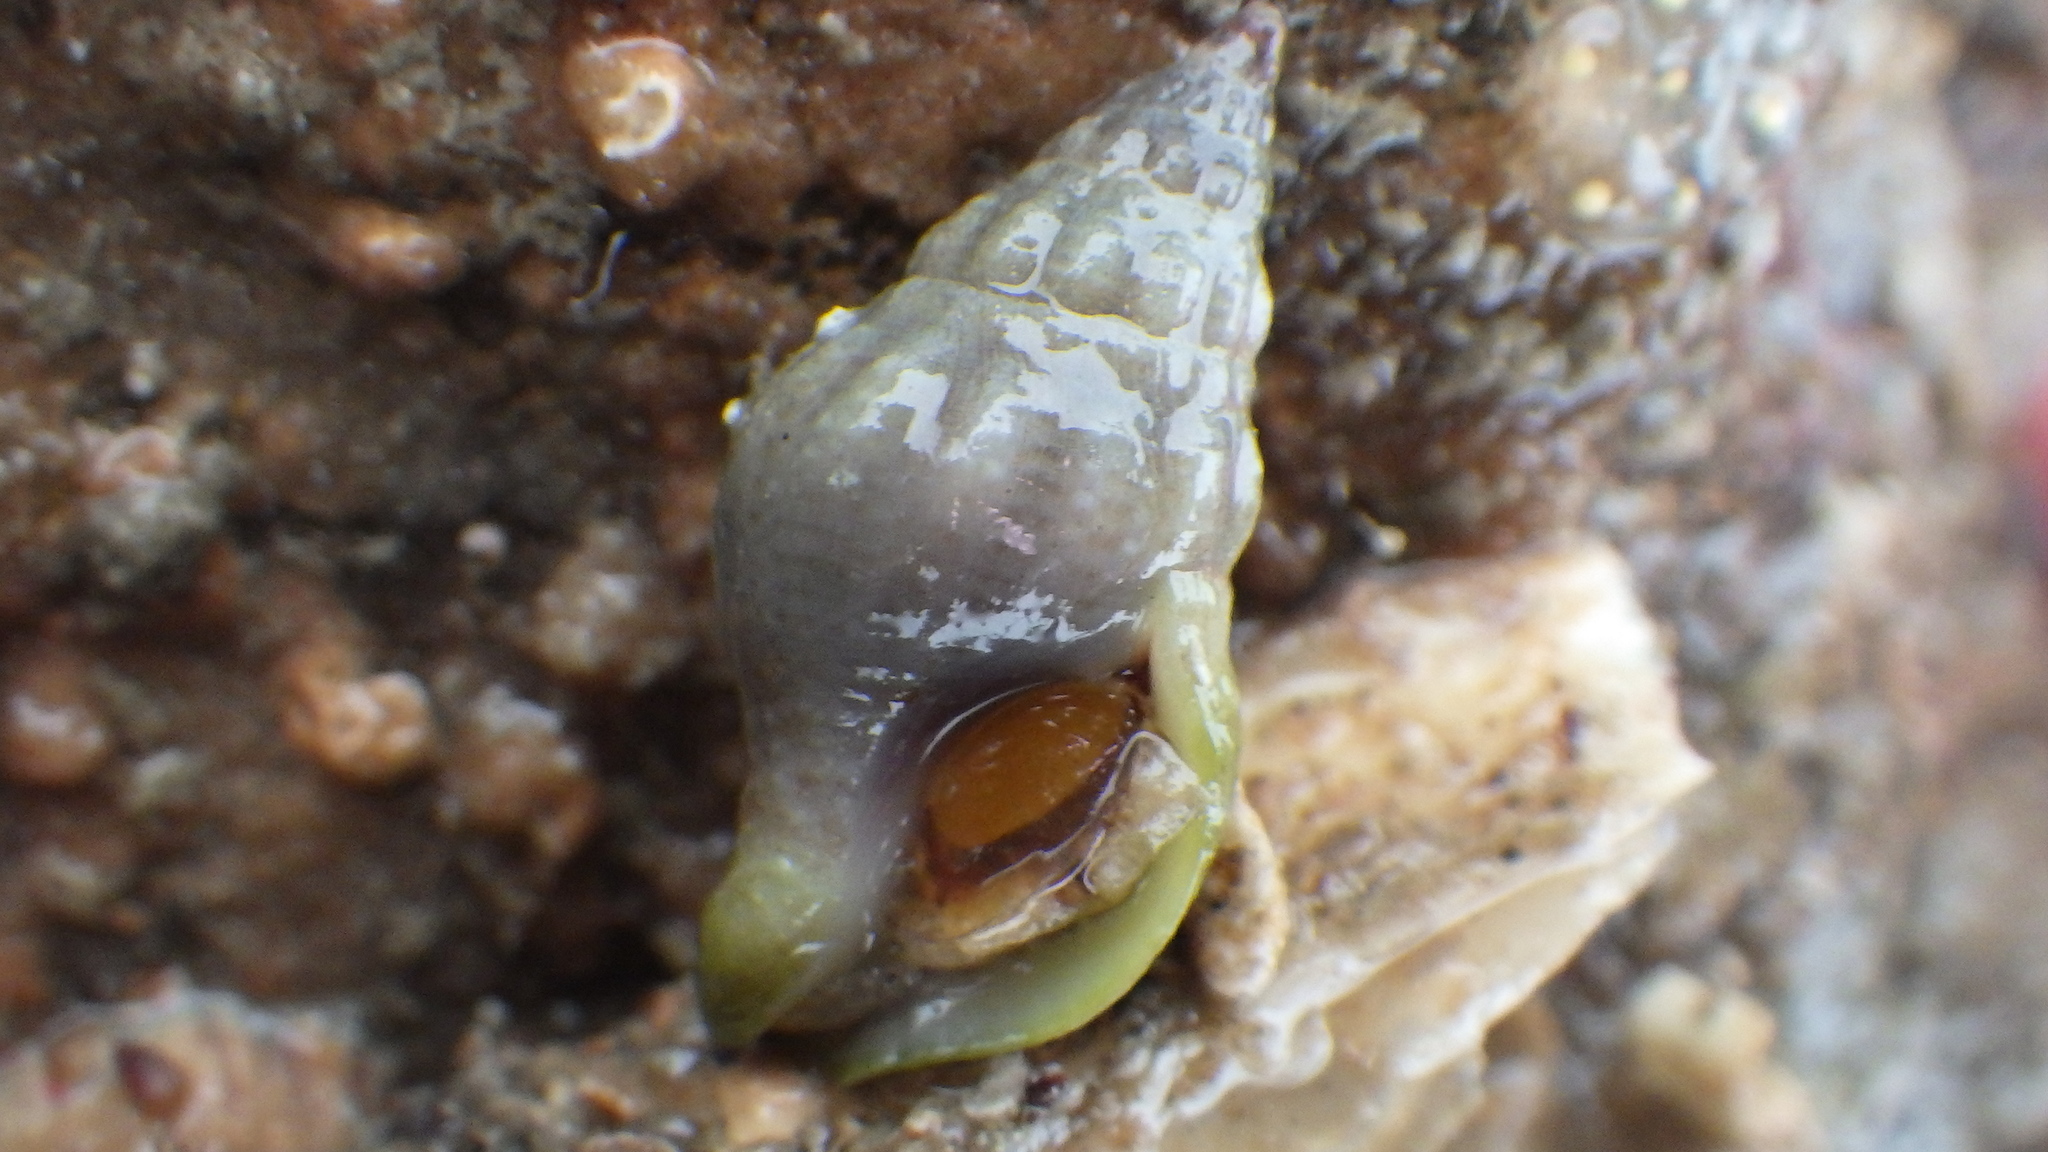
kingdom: Animalia
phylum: Mollusca
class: Gastropoda
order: Neogastropoda
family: Tudiclidae
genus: Buccinulum
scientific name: Buccinulum vittatum
